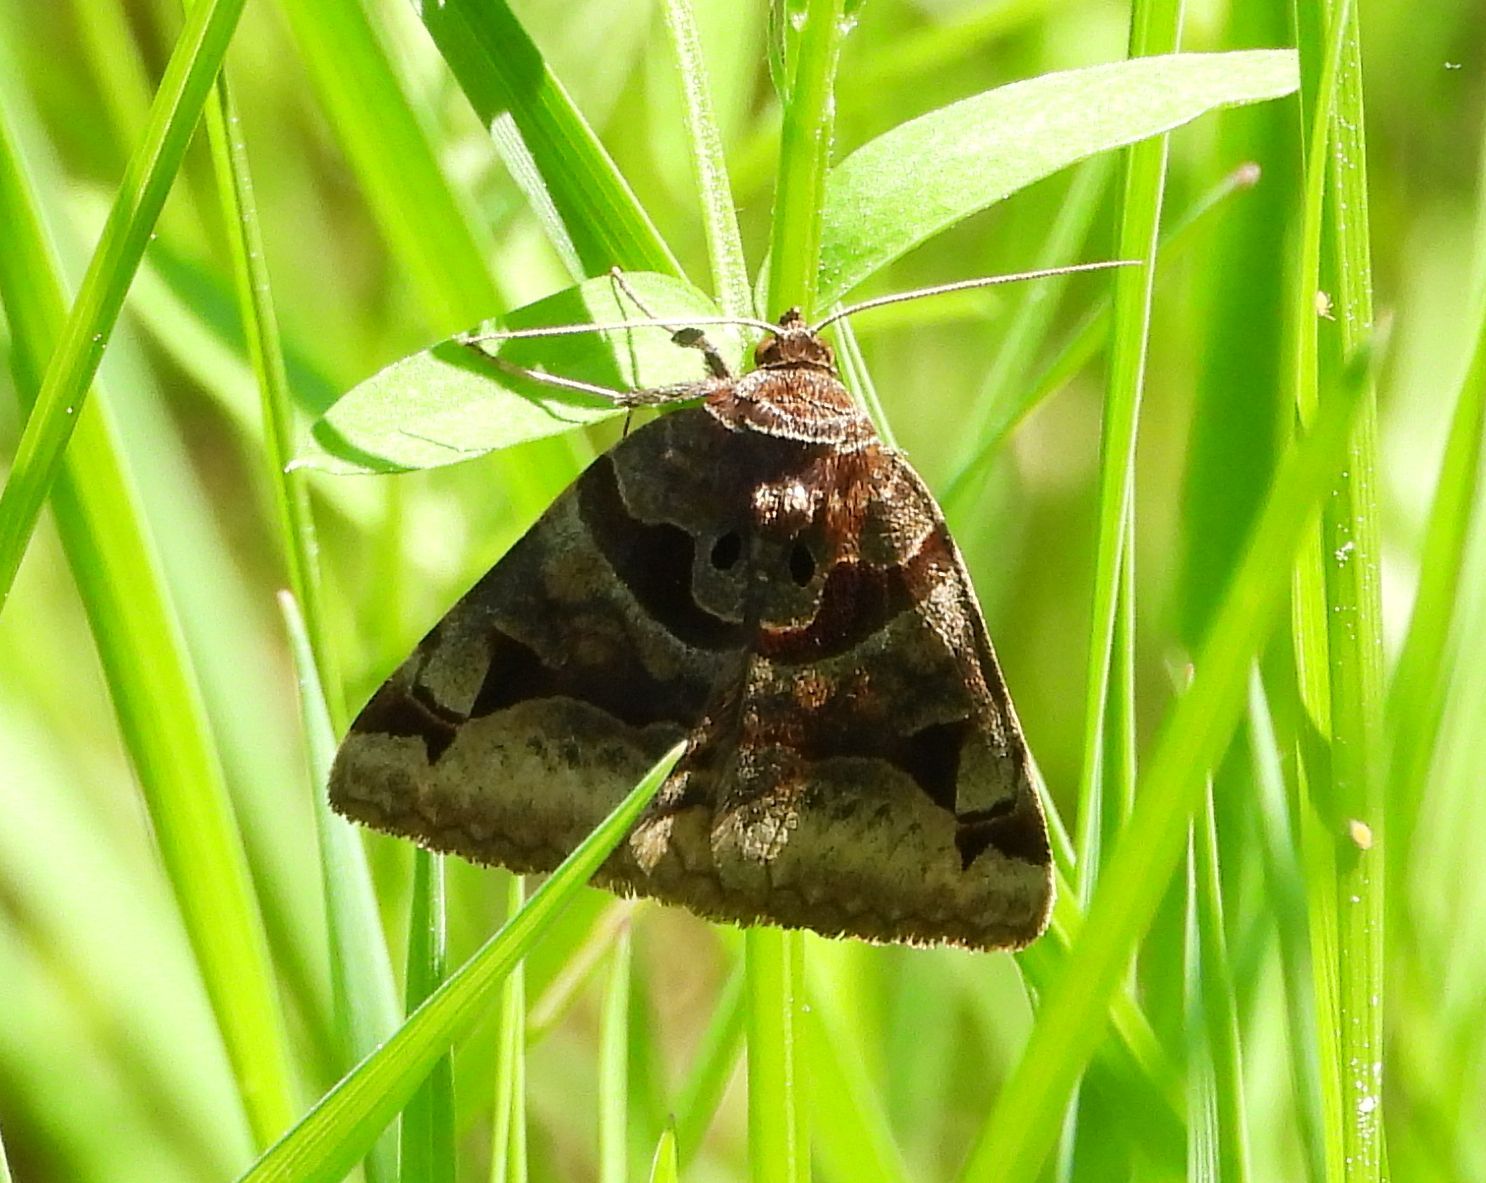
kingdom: Animalia
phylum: Arthropoda
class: Insecta
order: Lepidoptera
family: Erebidae
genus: Euclidia
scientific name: Euclidia cuspidea
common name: Toothed somberwing
